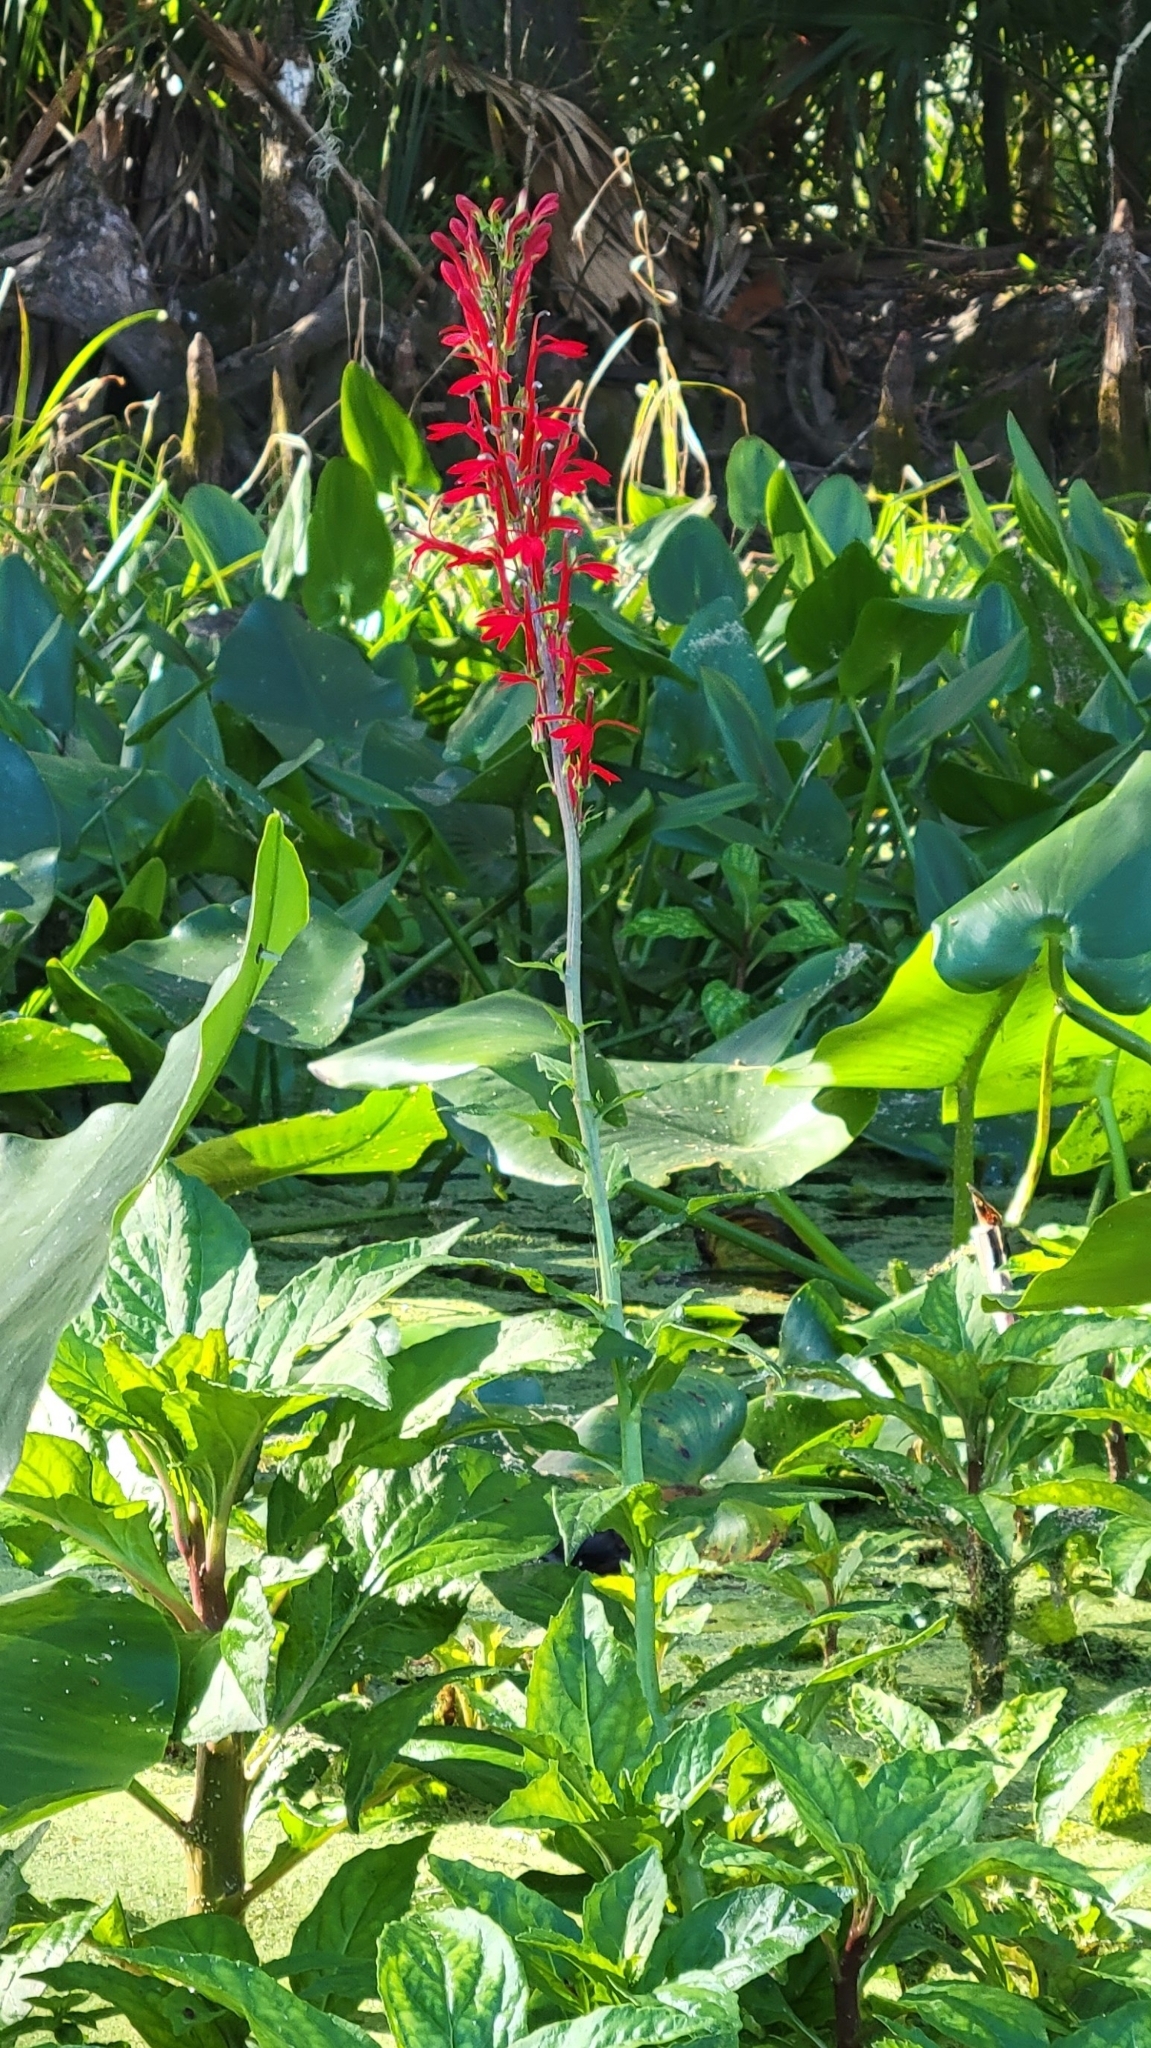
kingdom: Plantae
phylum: Tracheophyta
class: Magnoliopsida
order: Asterales
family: Campanulaceae
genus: Lobelia
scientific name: Lobelia cardinalis
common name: Cardinal flower
